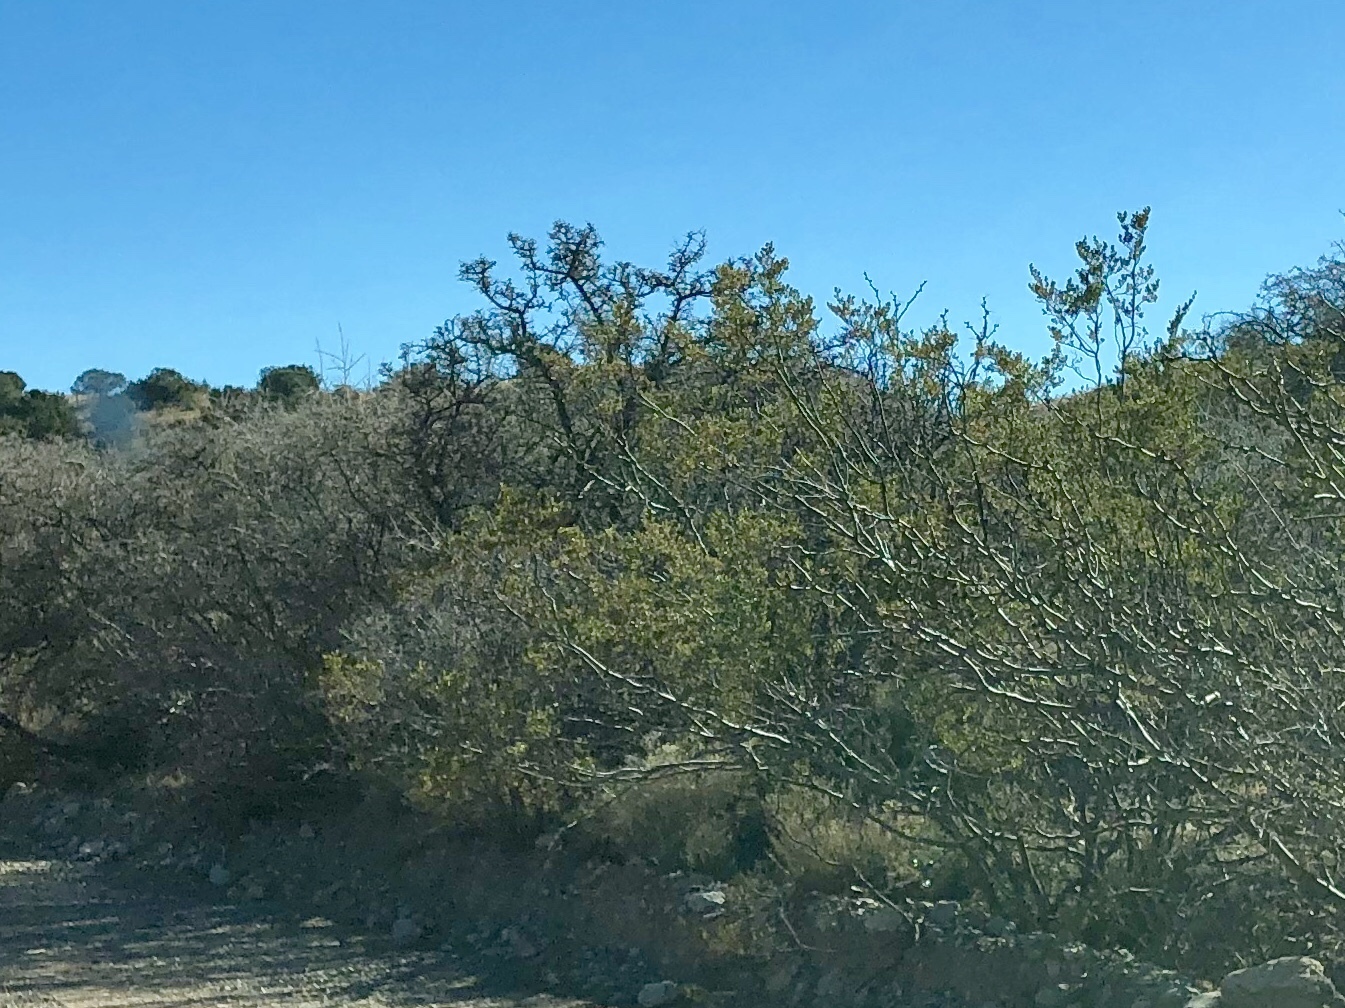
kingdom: Plantae
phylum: Tracheophyta
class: Magnoliopsida
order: Zygophyllales
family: Zygophyllaceae
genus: Larrea
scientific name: Larrea tridentata
